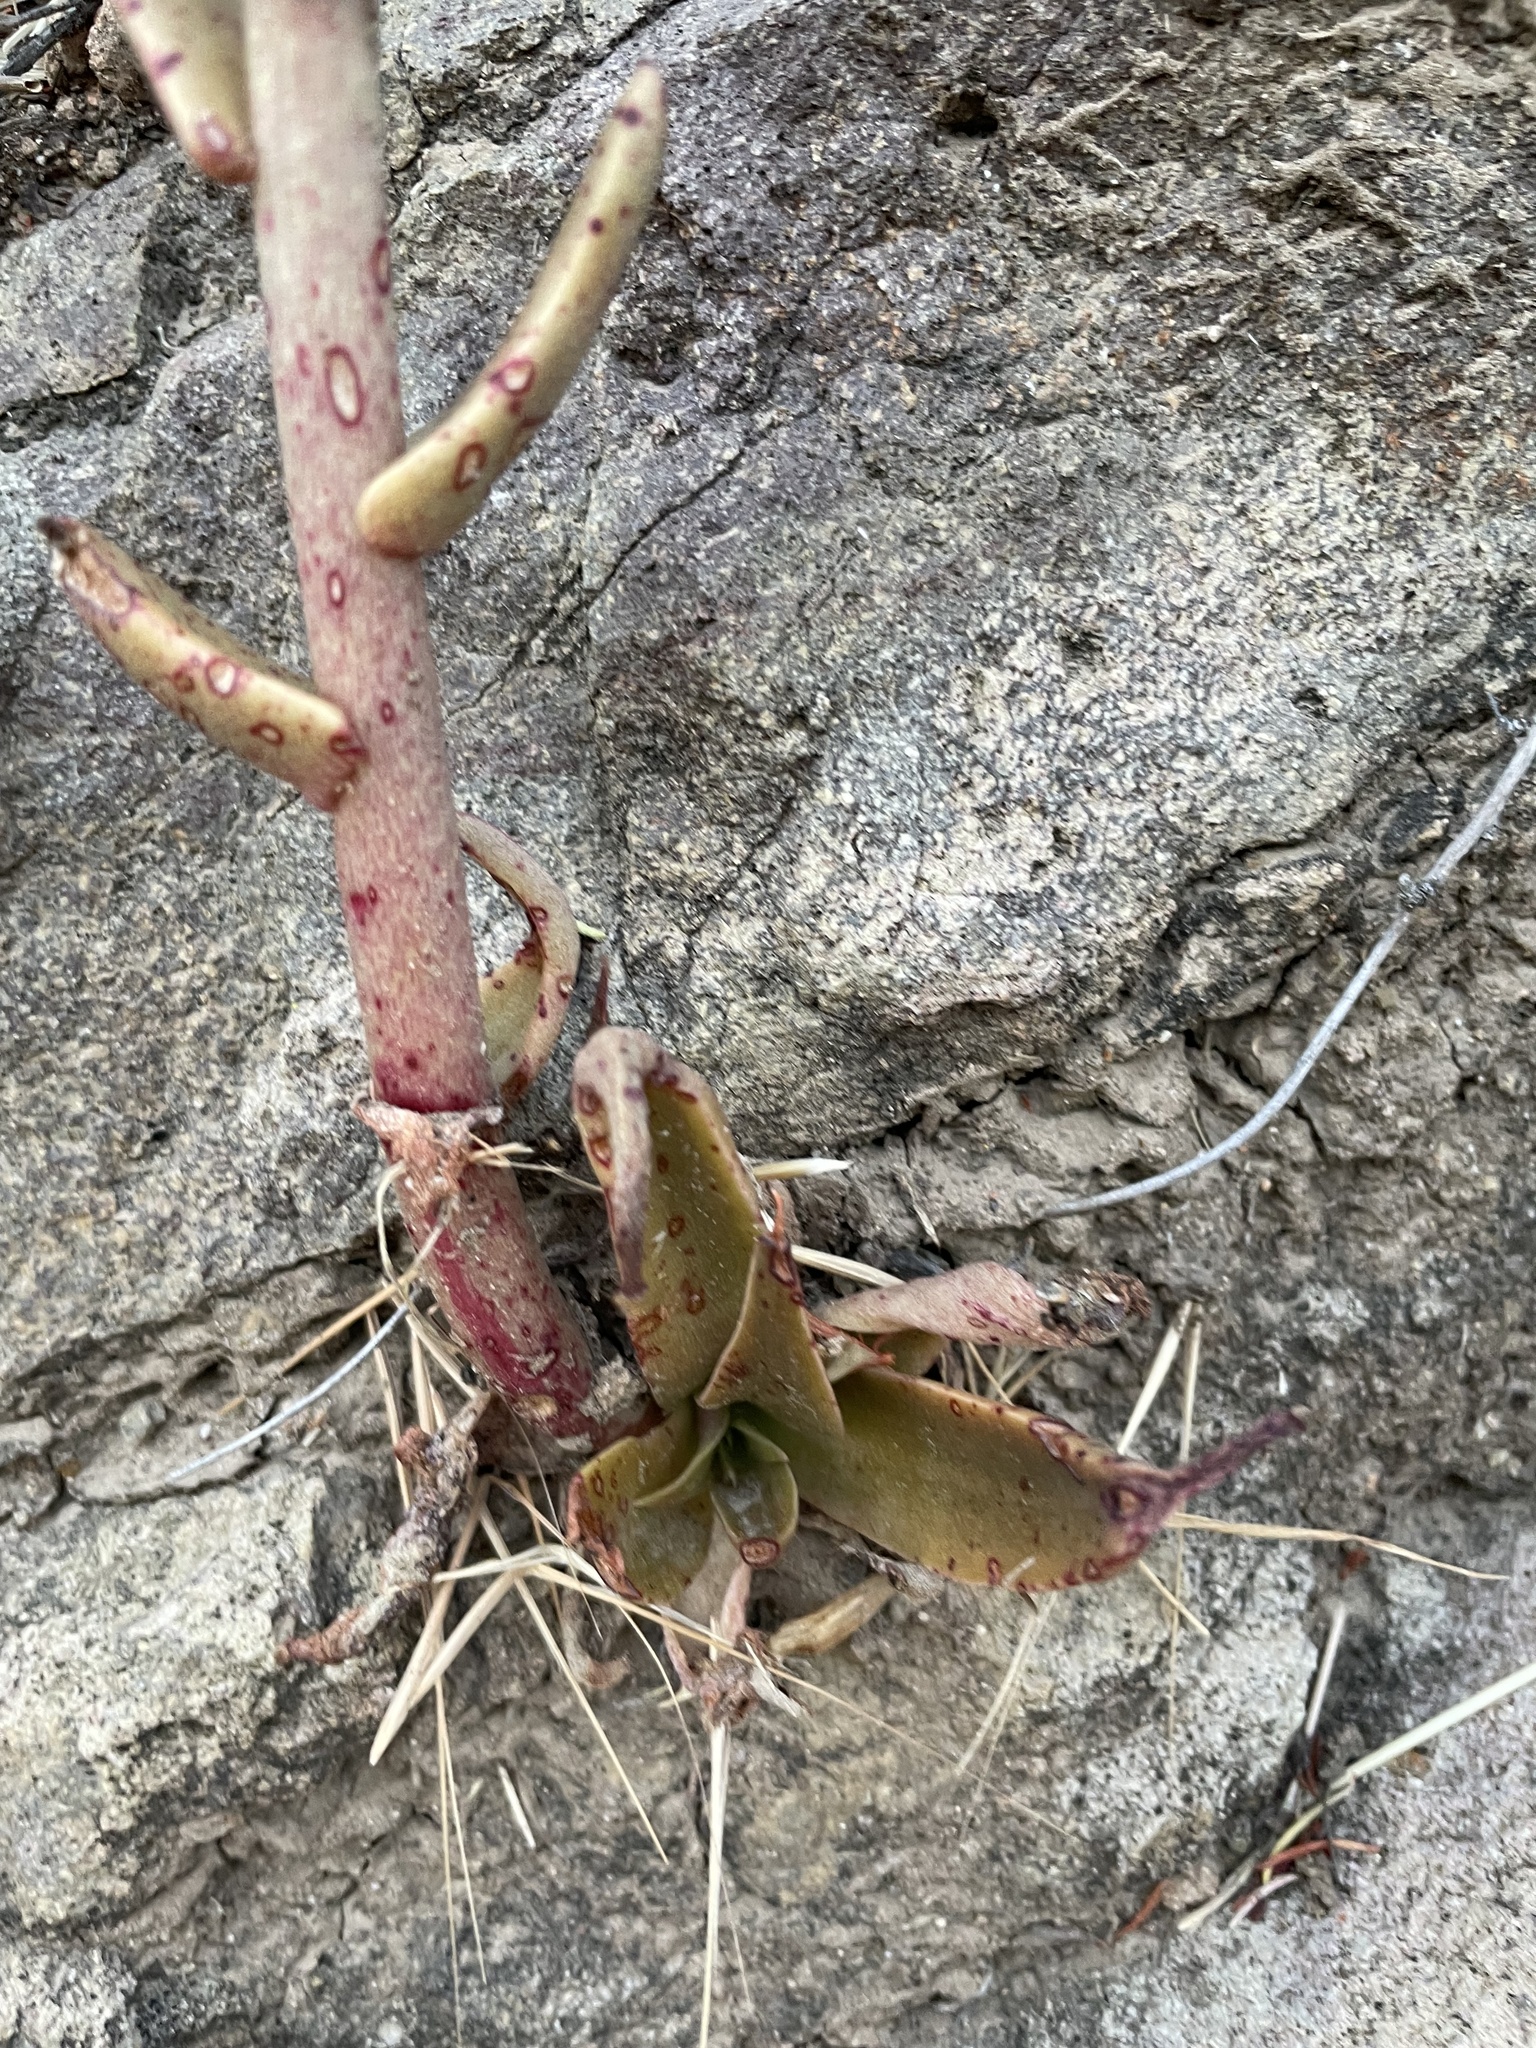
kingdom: Plantae
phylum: Tracheophyta
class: Magnoliopsida
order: Saxifragales
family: Crassulaceae
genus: Dudleya
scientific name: Dudleya lanceolata
